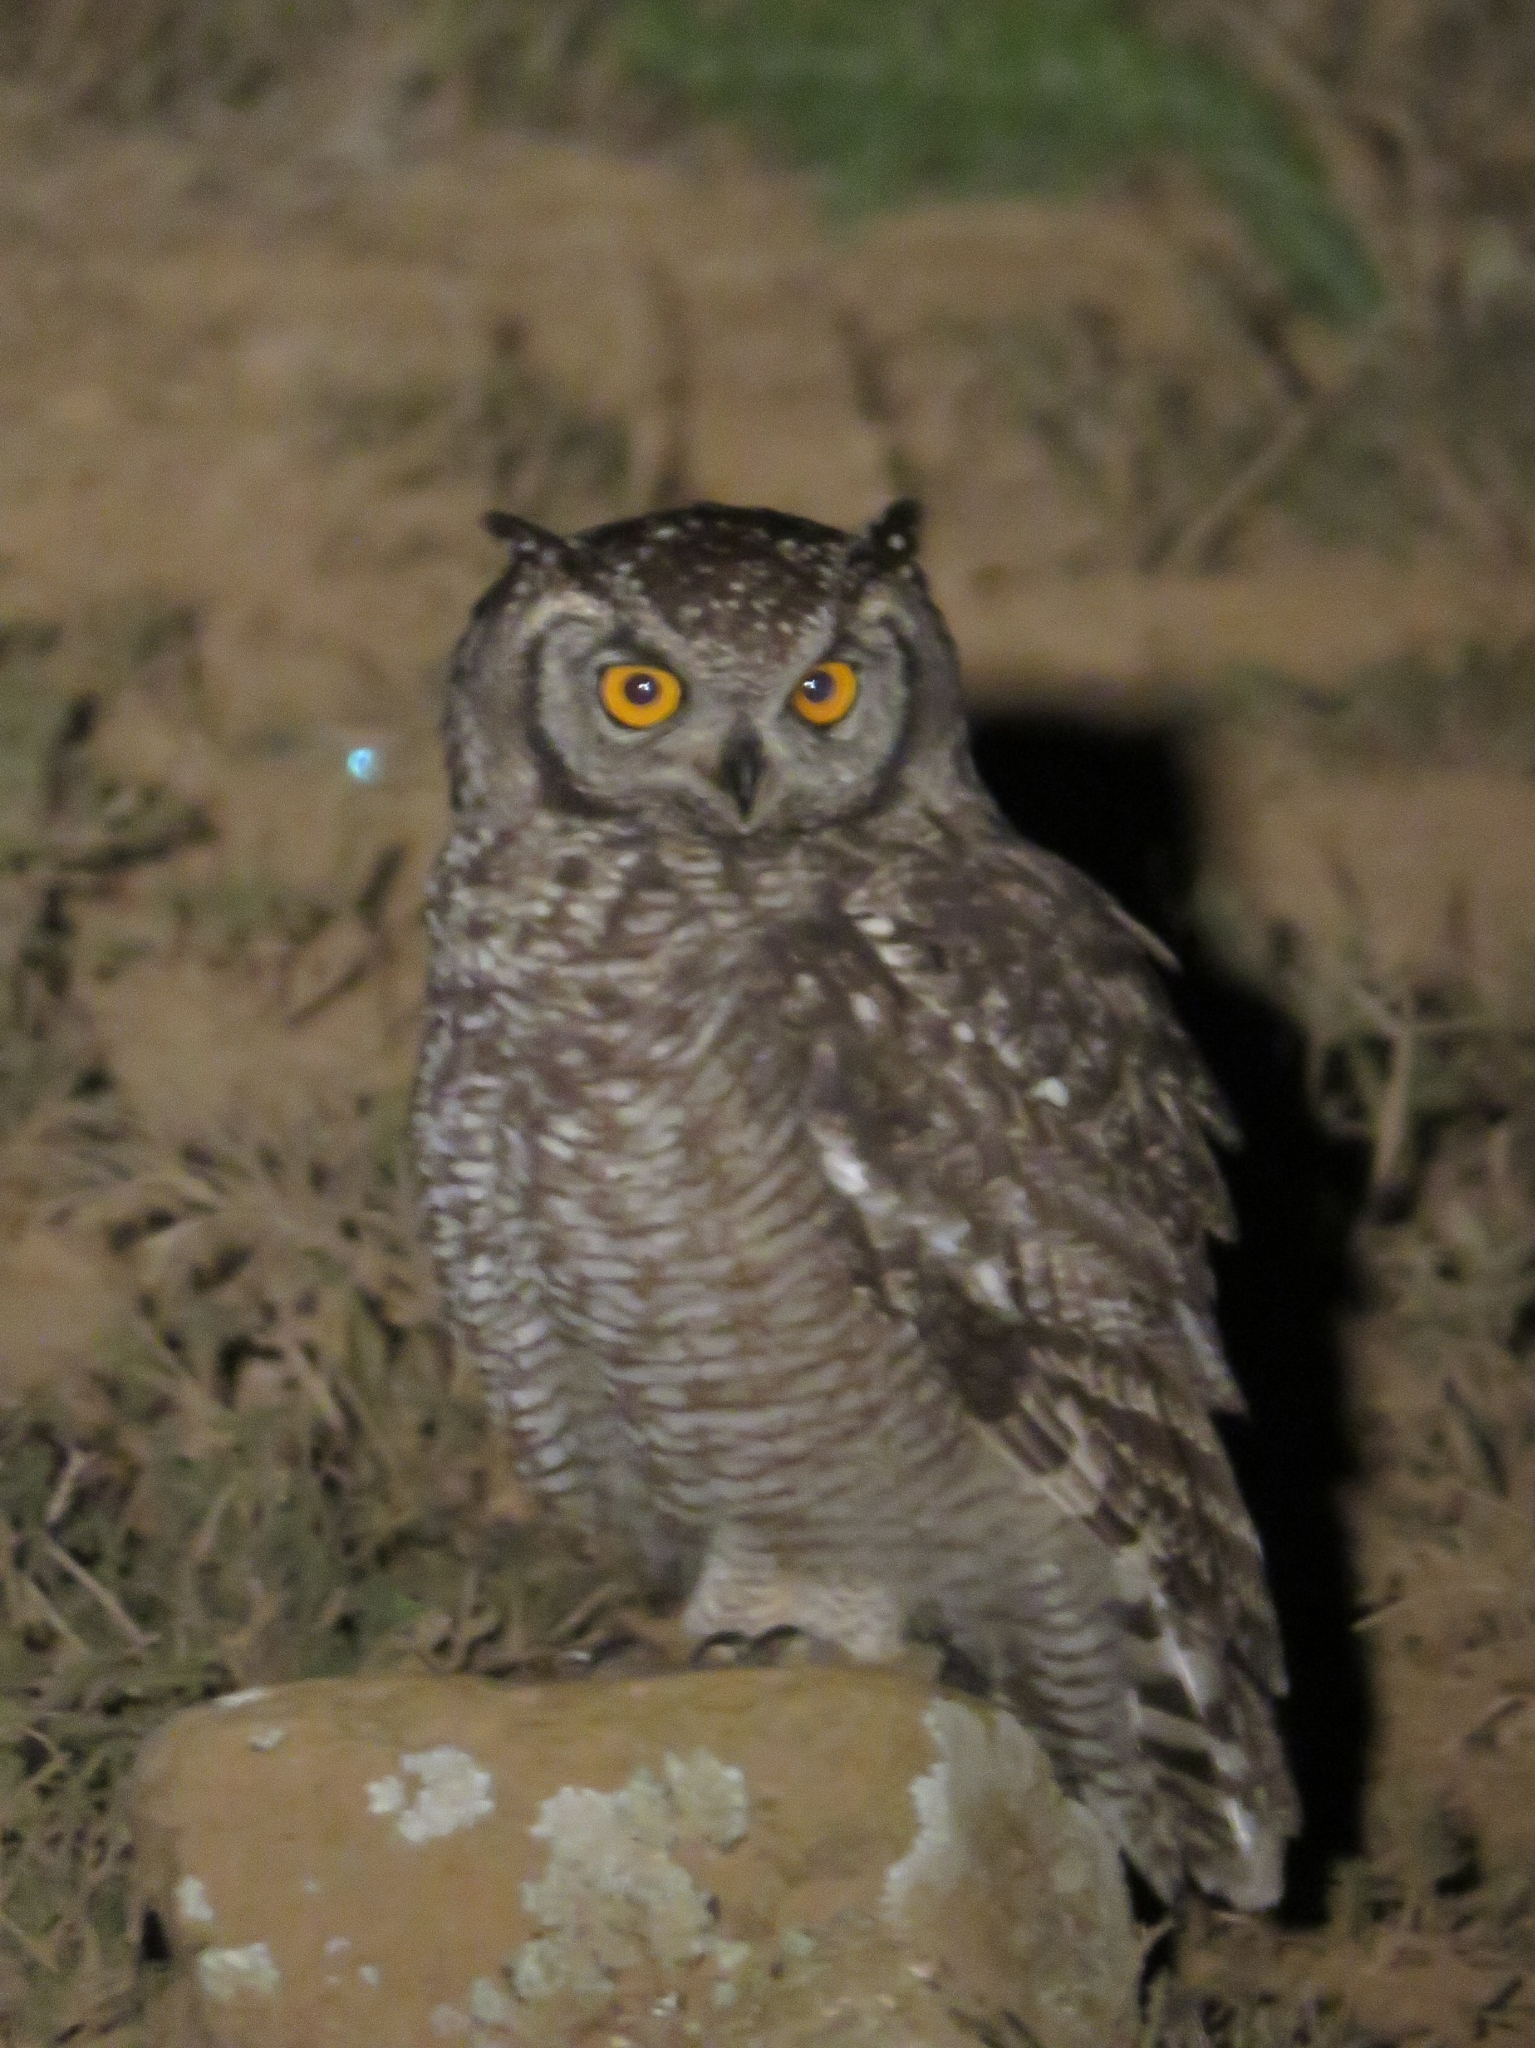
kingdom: Animalia
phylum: Chordata
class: Aves
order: Strigiformes
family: Strigidae
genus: Bubo
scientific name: Bubo africanus
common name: Spotted eagle-owl
